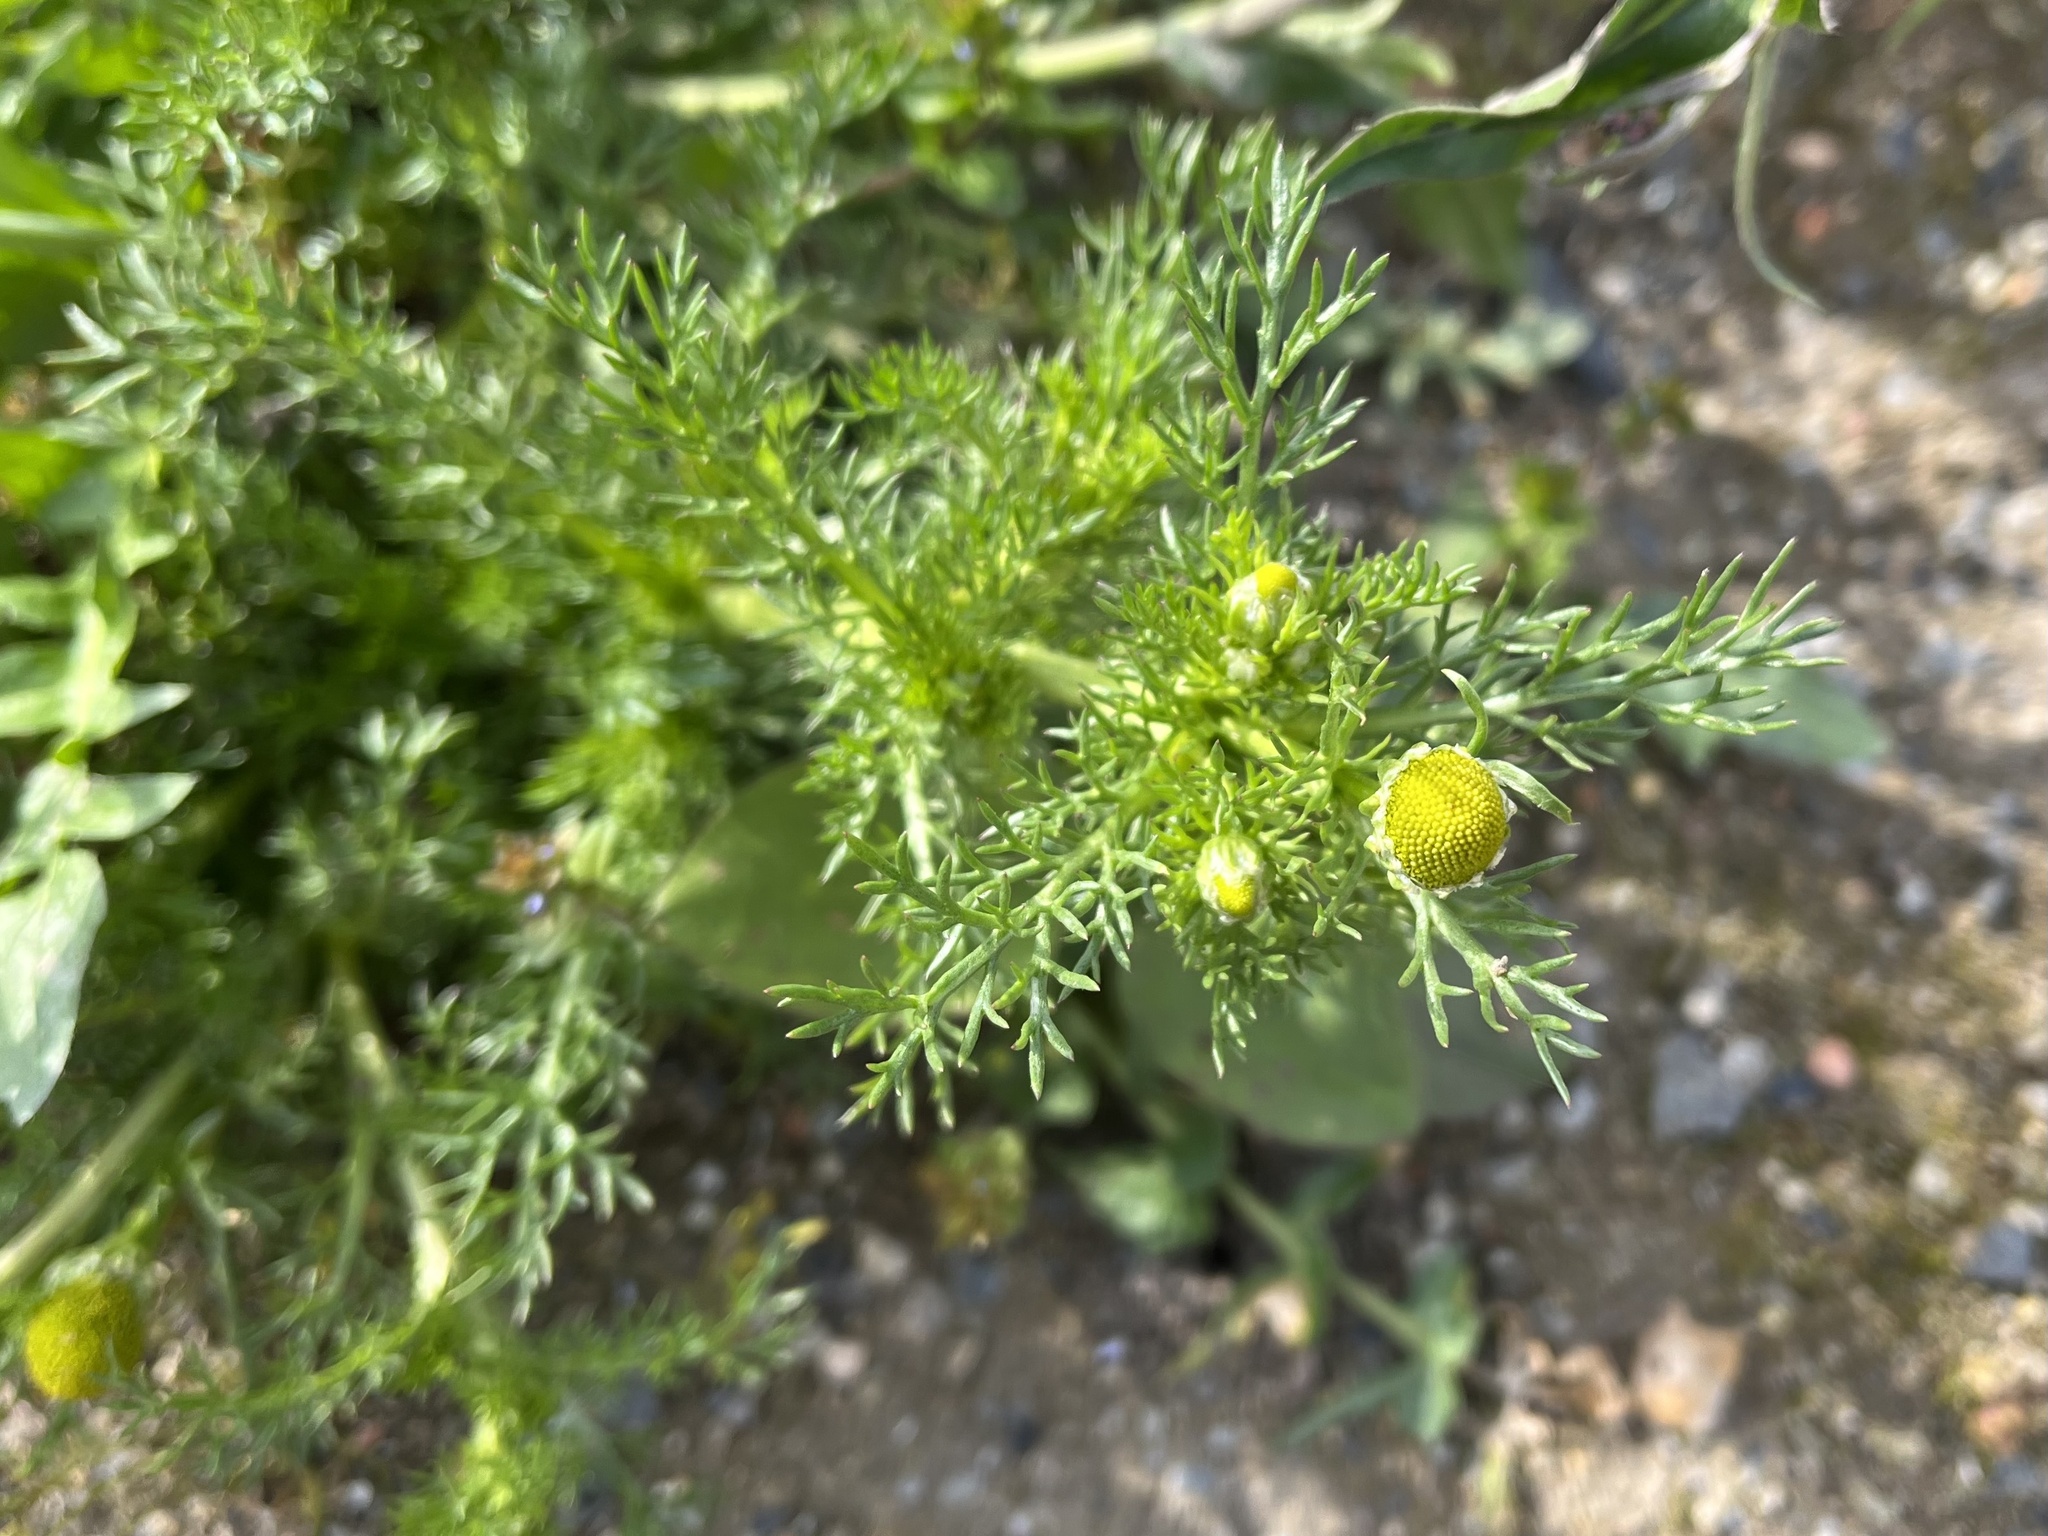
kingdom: Plantae
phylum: Tracheophyta
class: Magnoliopsida
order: Asterales
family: Asteraceae
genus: Matricaria
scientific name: Matricaria discoidea
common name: Disc mayweed
